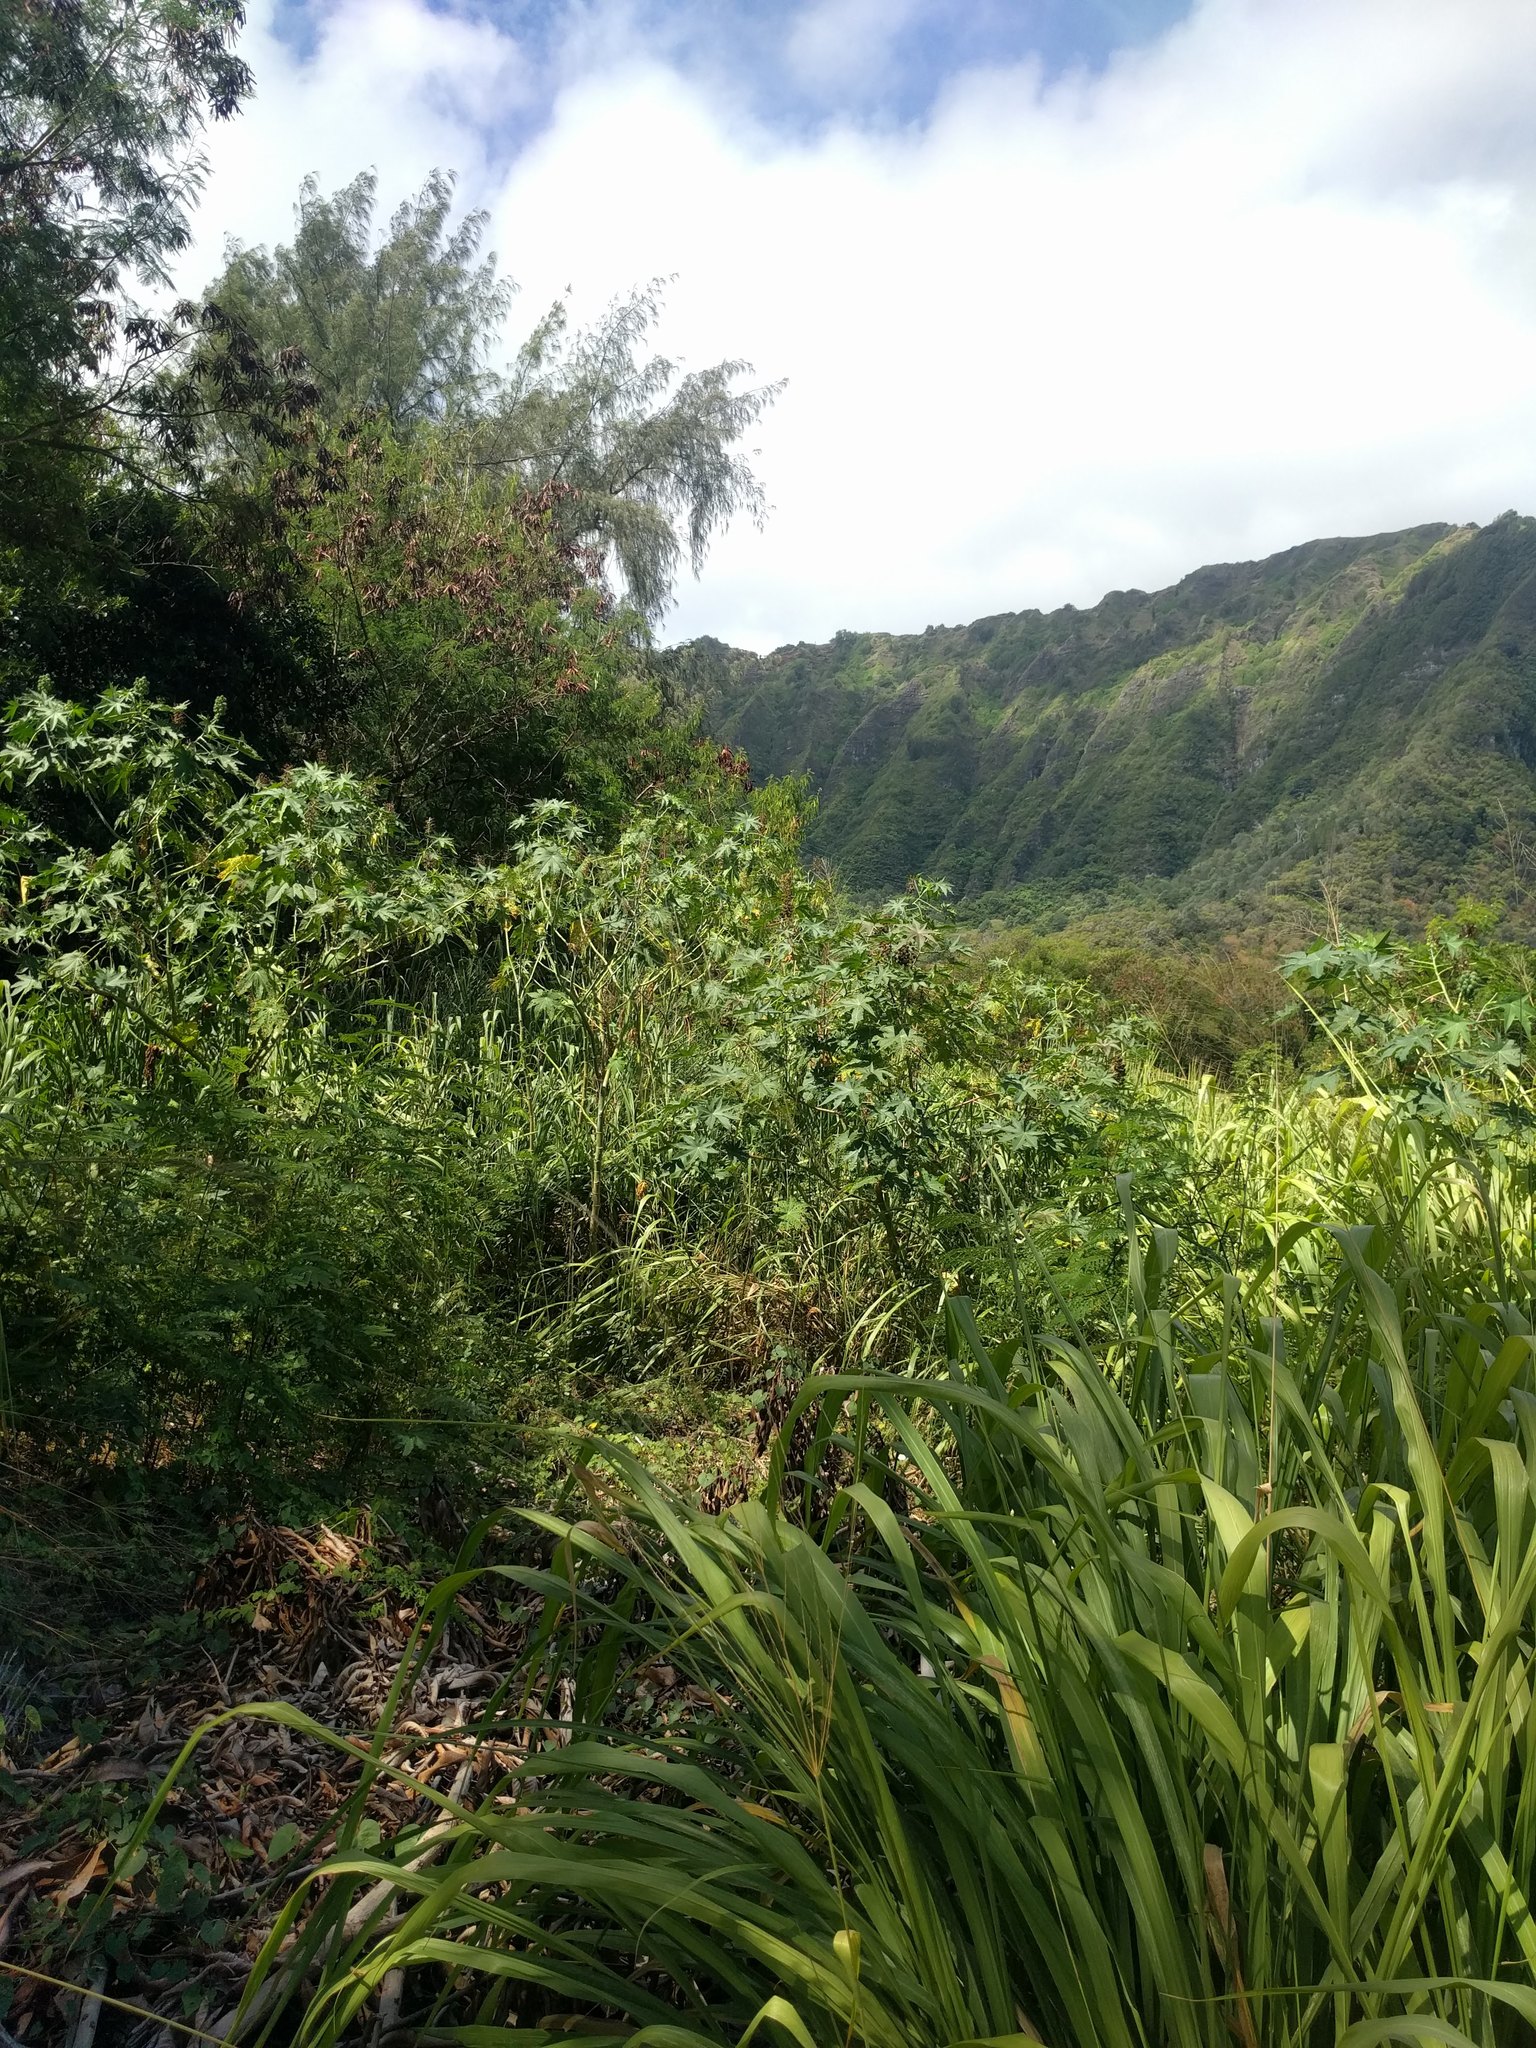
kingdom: Plantae
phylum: Tracheophyta
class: Magnoliopsida
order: Malpighiales
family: Euphorbiaceae
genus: Ricinus
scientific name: Ricinus communis
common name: Castor-oil-plant
